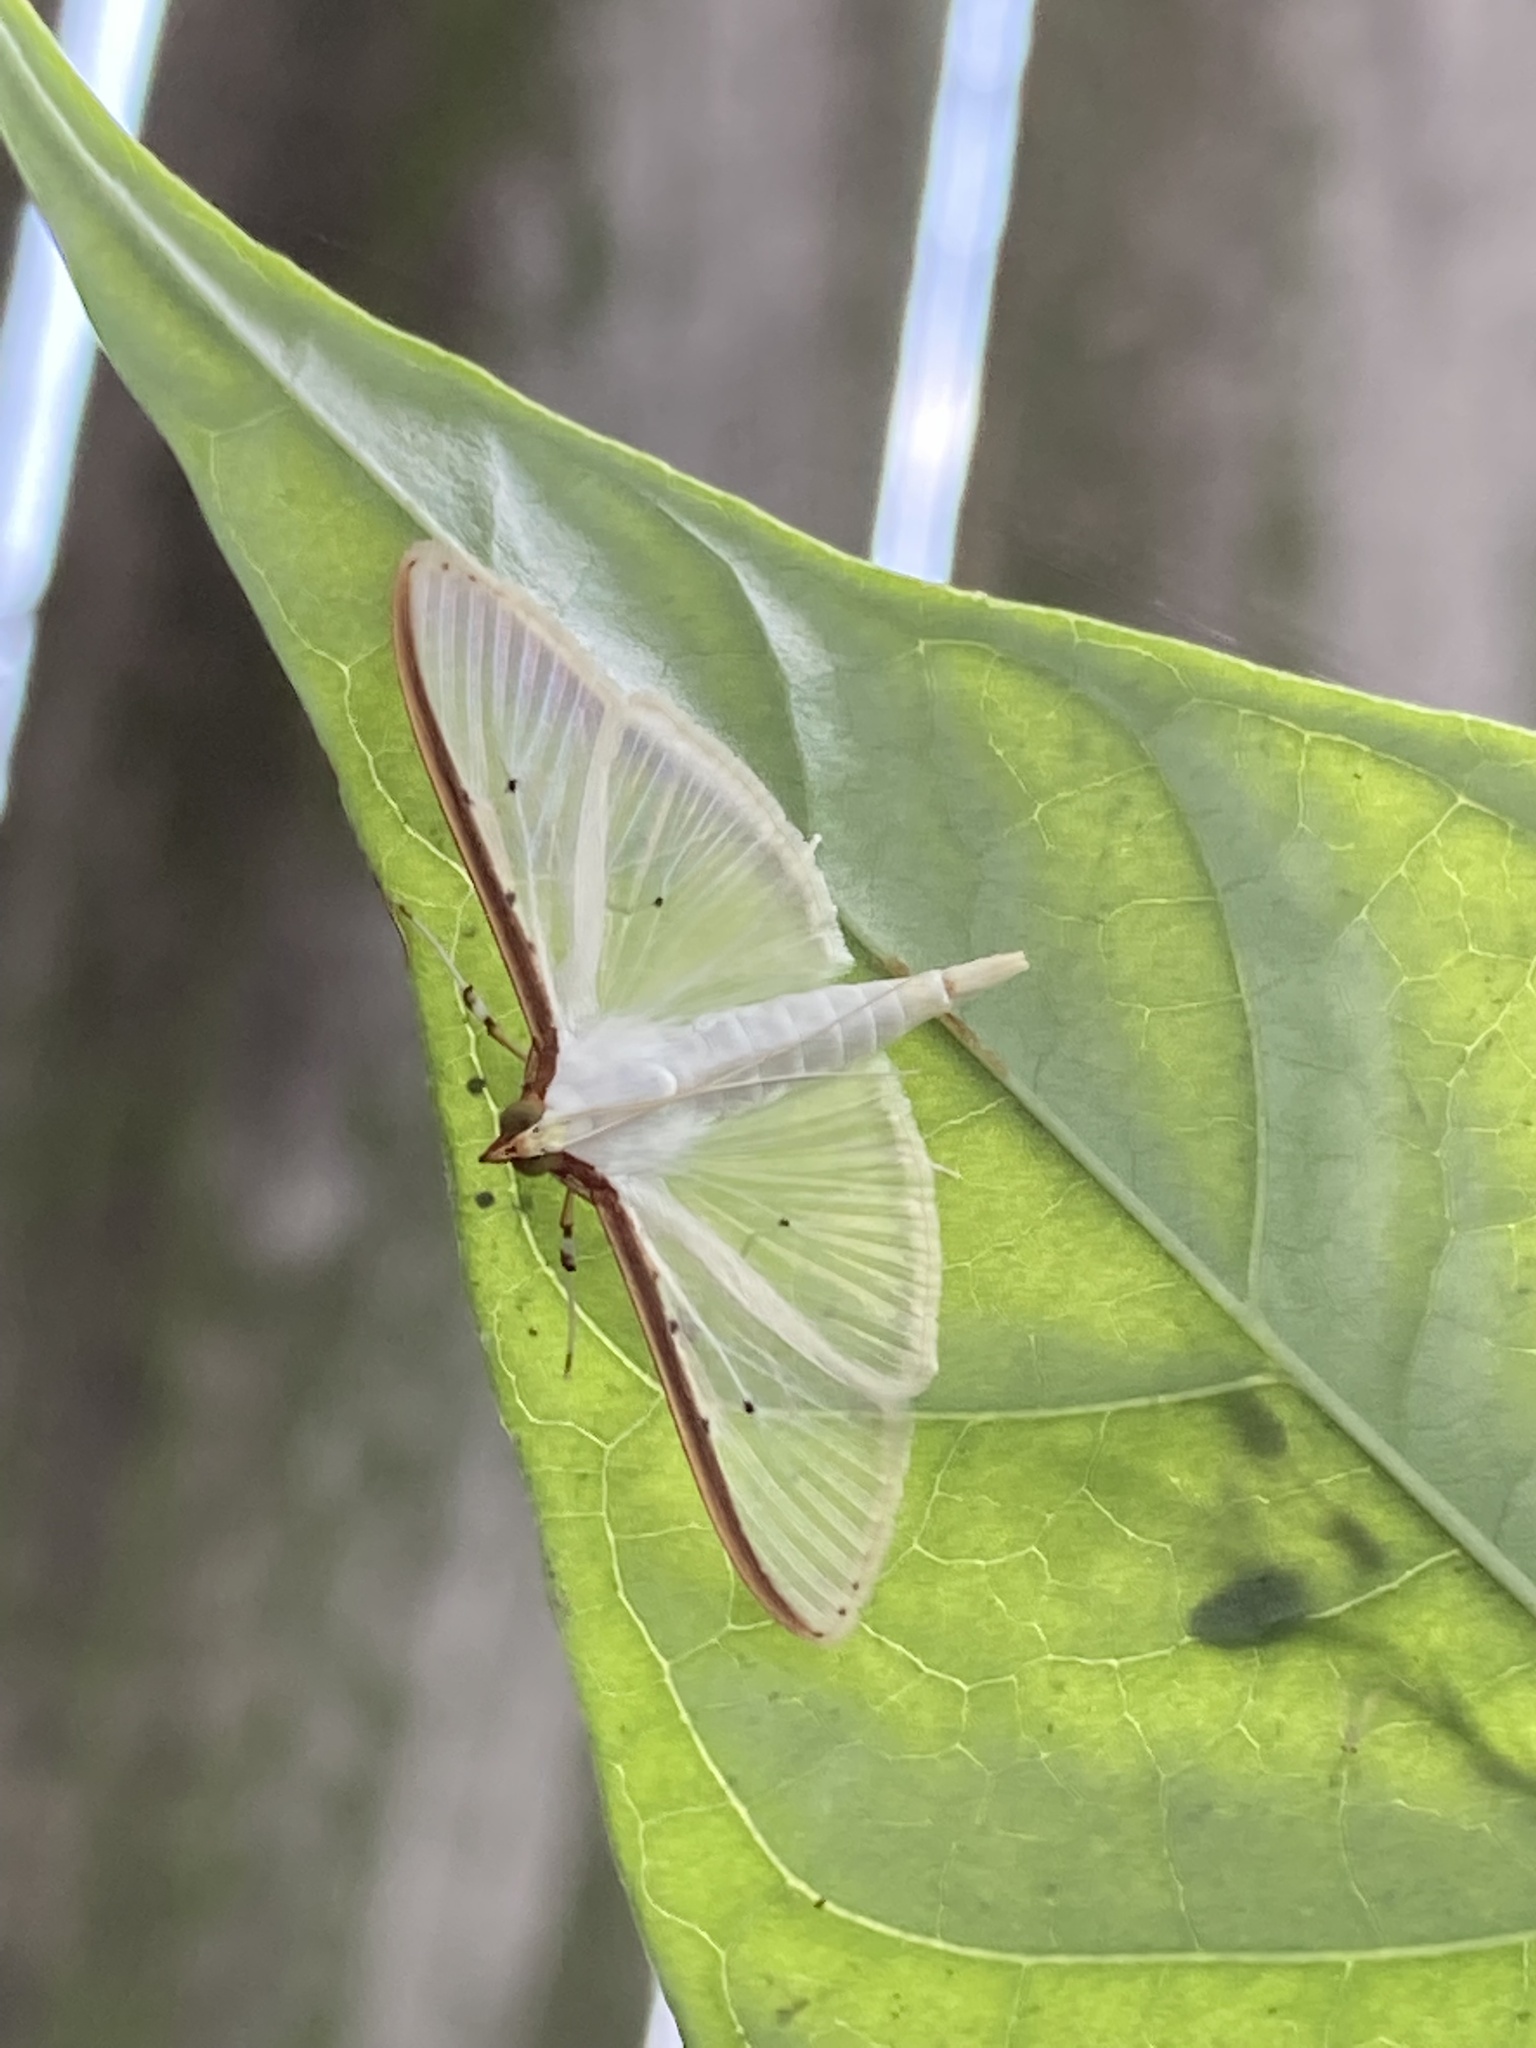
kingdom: Animalia
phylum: Arthropoda
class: Insecta
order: Lepidoptera
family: Crambidae
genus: Palpita
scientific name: Palpita quadristigmalis
